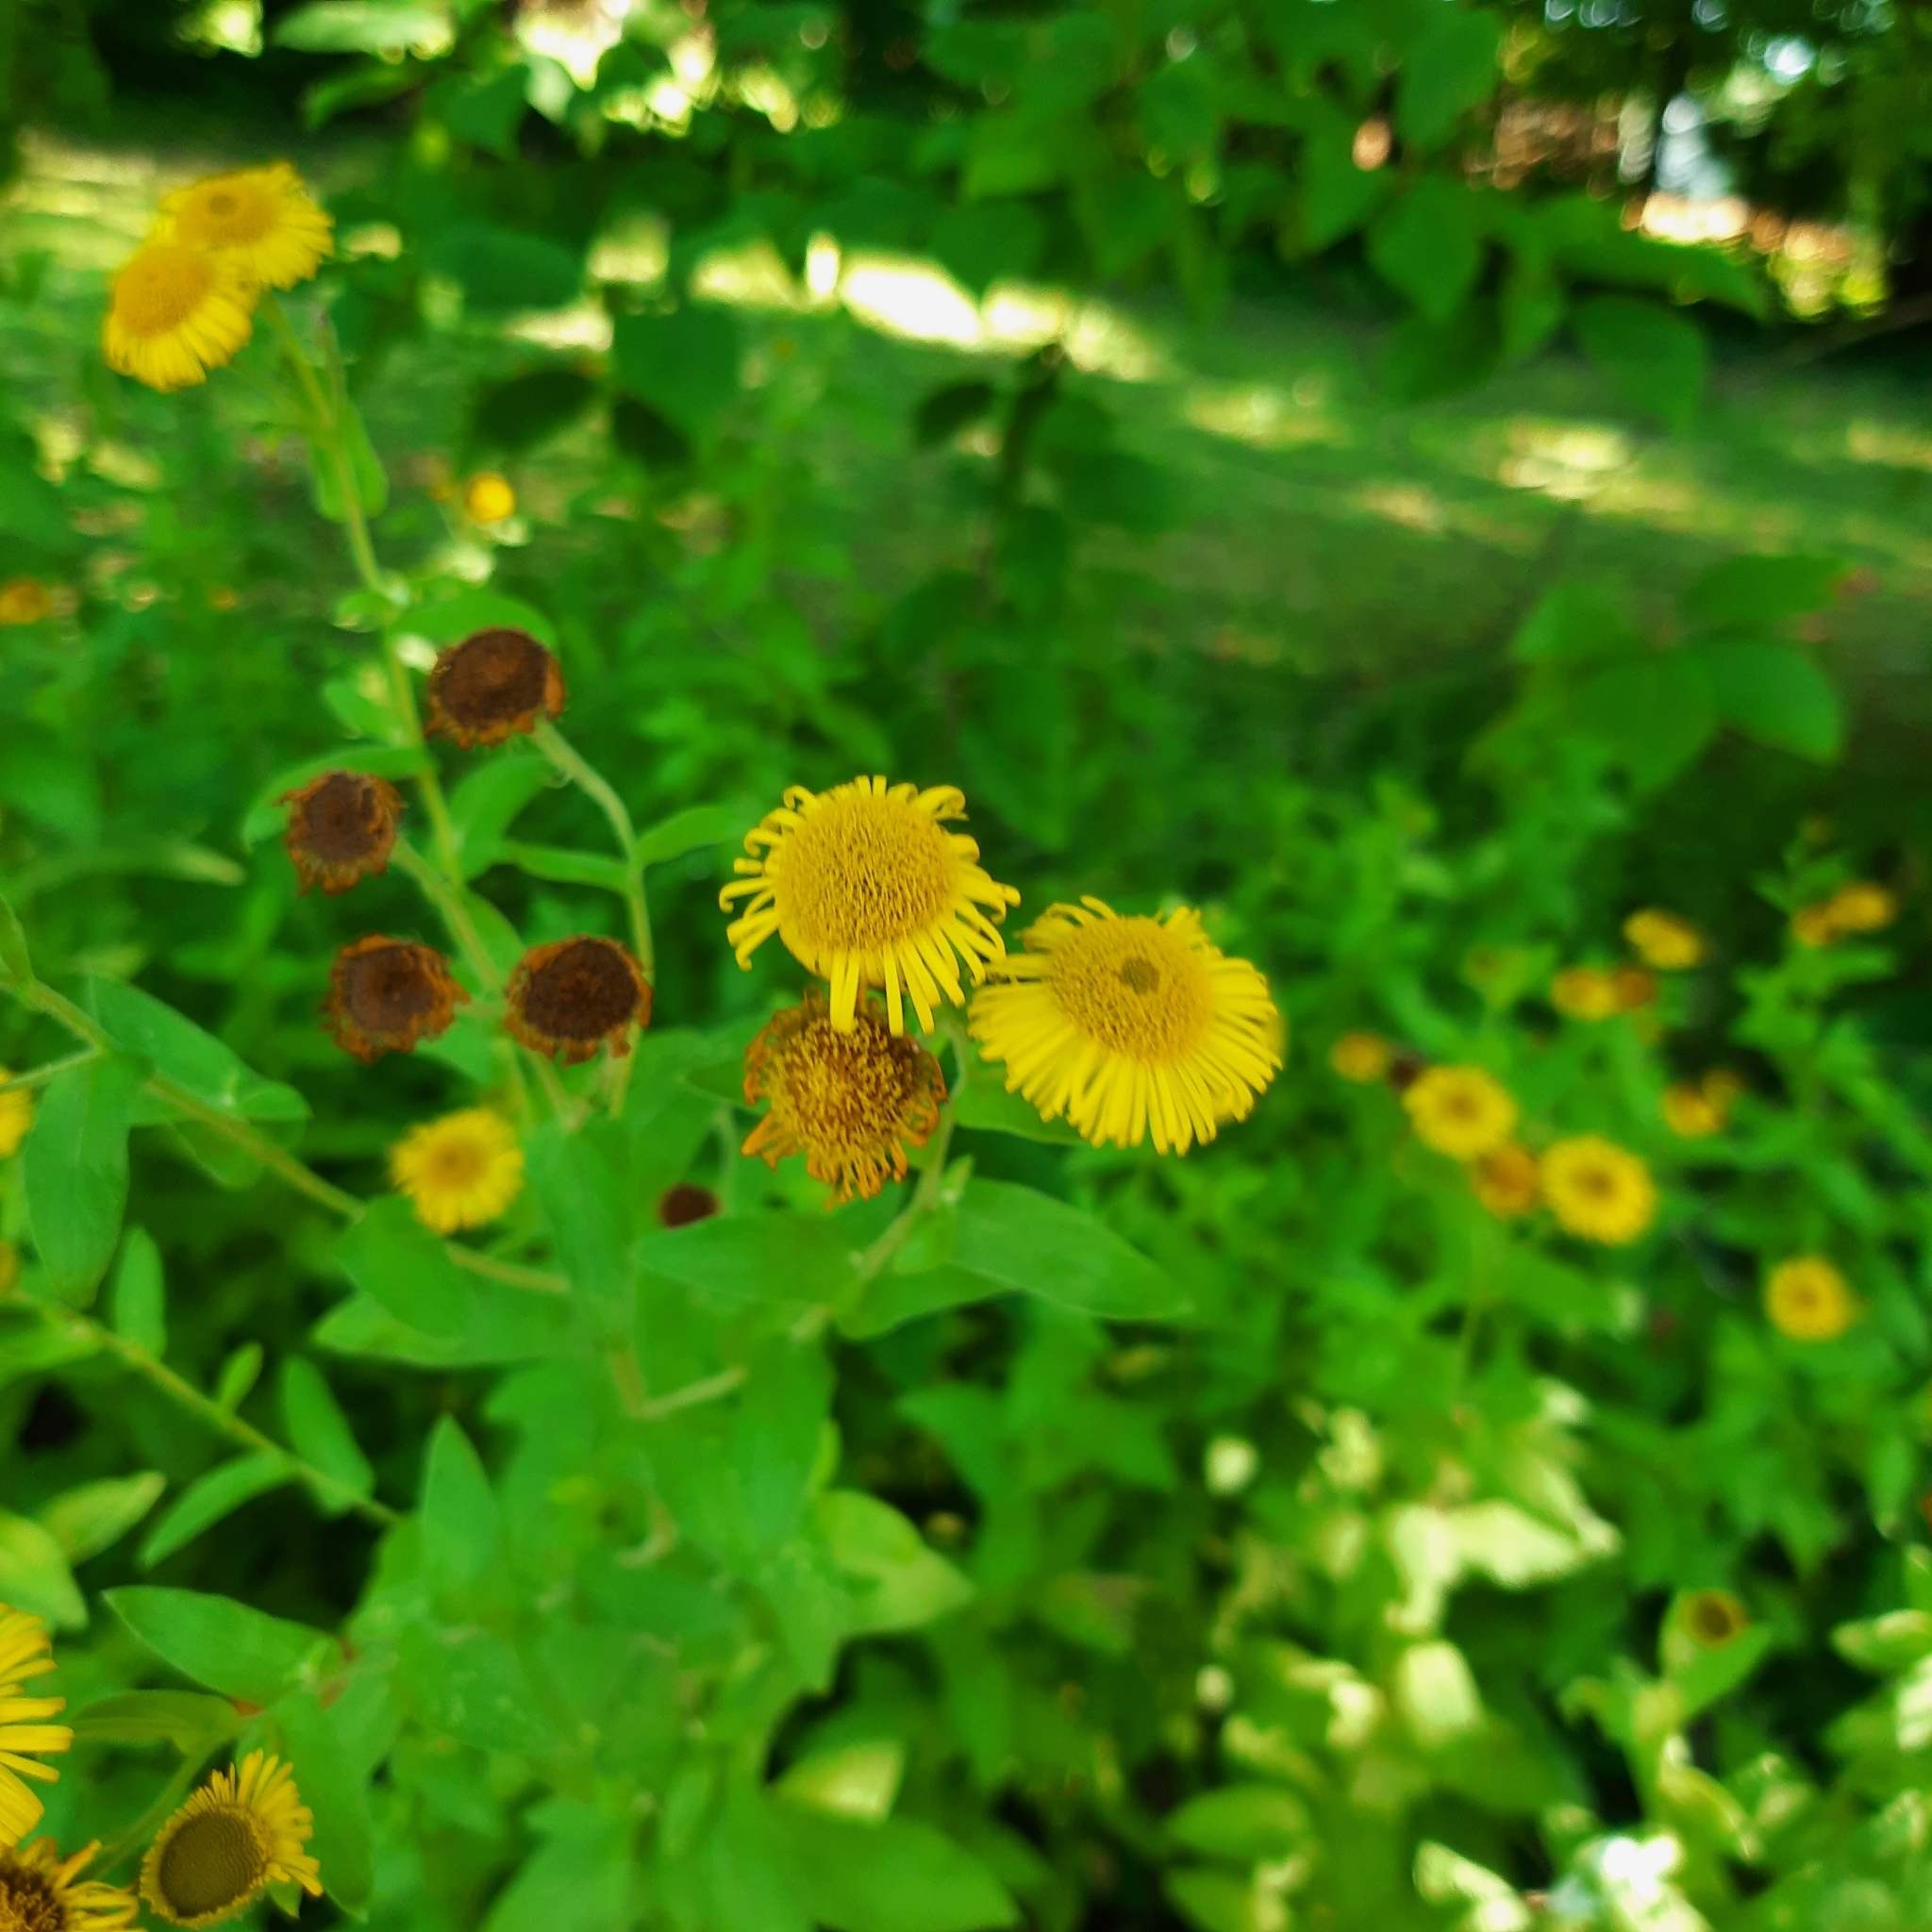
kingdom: Plantae
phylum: Tracheophyta
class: Magnoliopsida
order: Asterales
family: Asteraceae
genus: Pulicaria
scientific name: Pulicaria dysenterica
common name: Common fleabane
